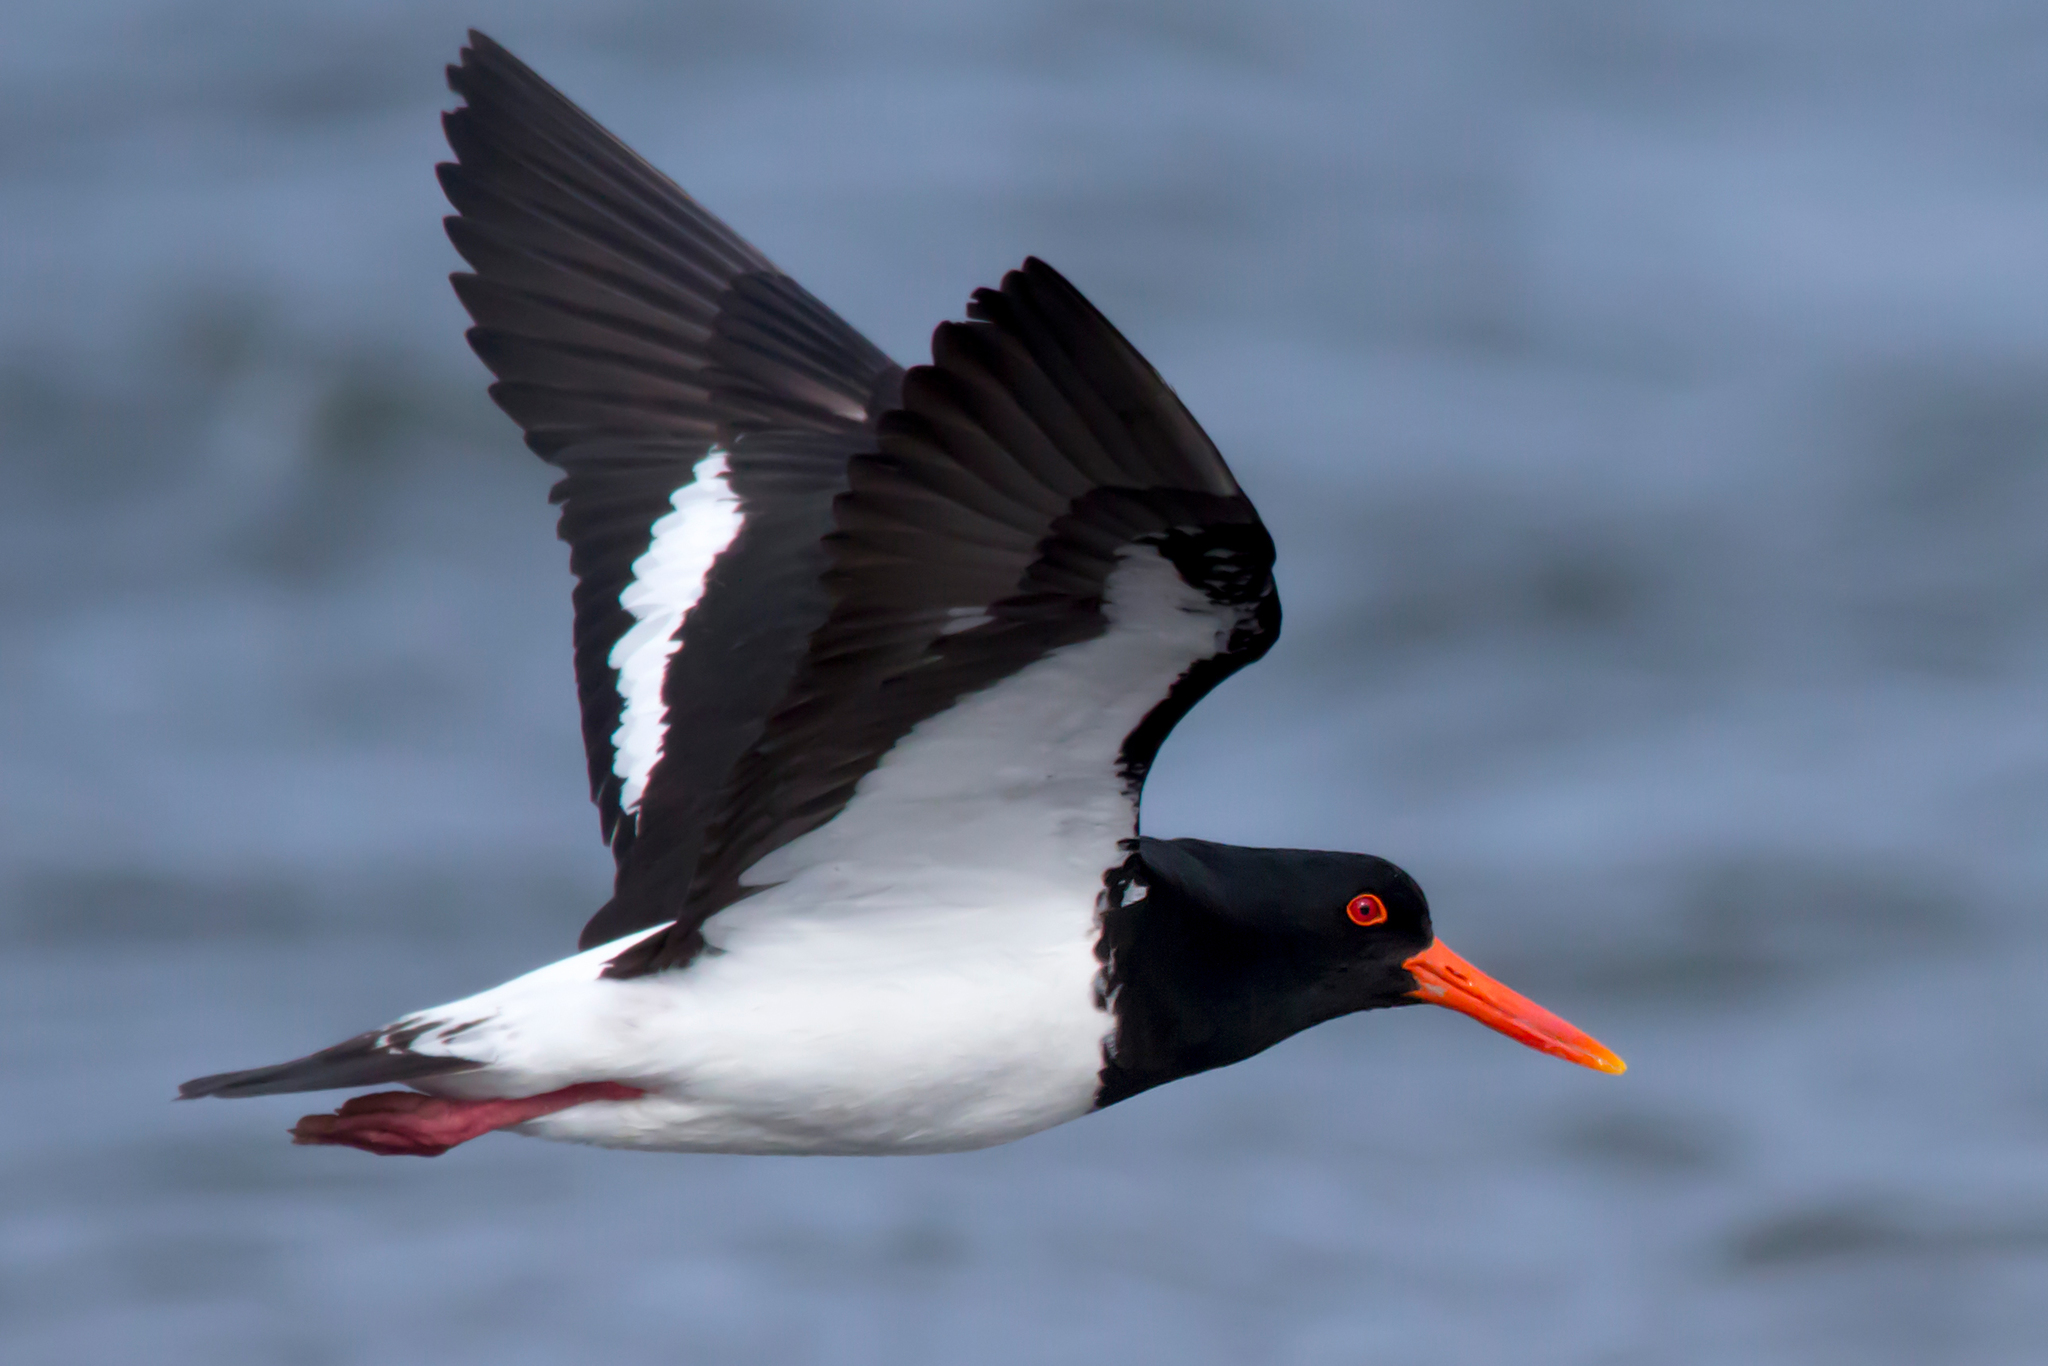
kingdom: Animalia
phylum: Chordata
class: Aves
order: Charadriiformes
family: Haematopodidae
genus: Haematopus
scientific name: Haematopus longirostris
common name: Pied oystercatcher
